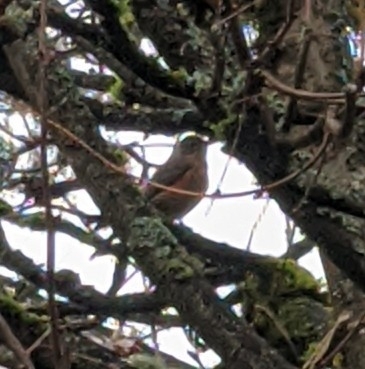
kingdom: Animalia
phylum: Chordata
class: Aves
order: Passeriformes
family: Turdidae
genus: Turdus
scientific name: Turdus migratorius
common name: American robin
